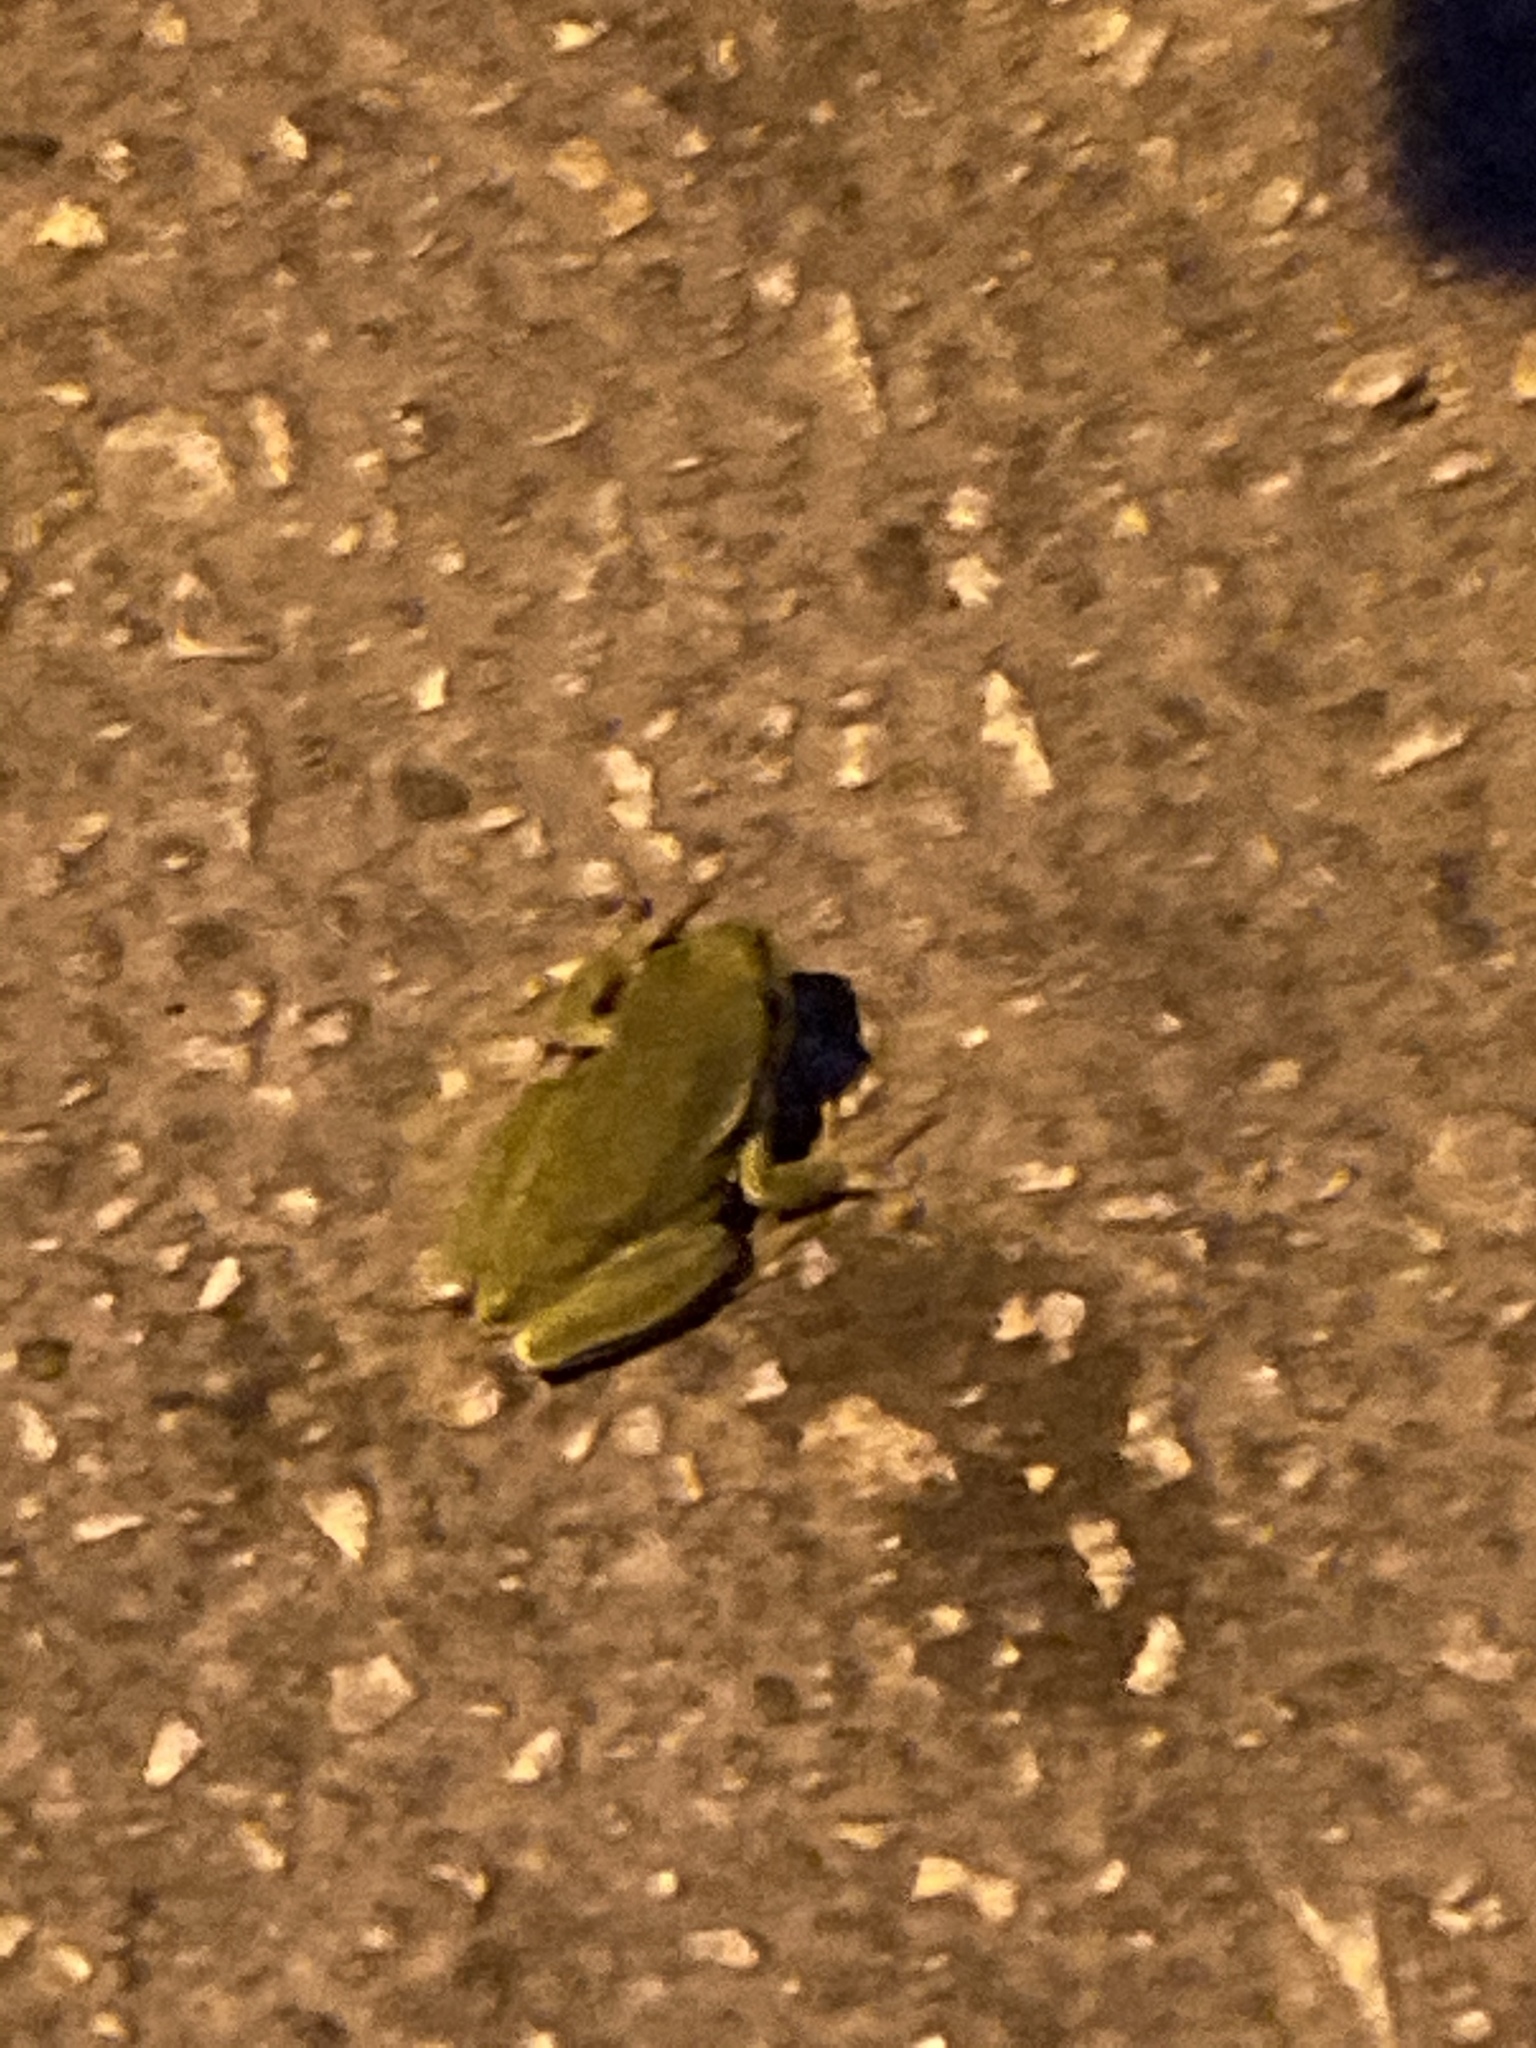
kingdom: Animalia
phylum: Chordata
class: Amphibia
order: Anura
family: Hylidae
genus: Hyla
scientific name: Hyla orientalis
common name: Caucasian treefrog
